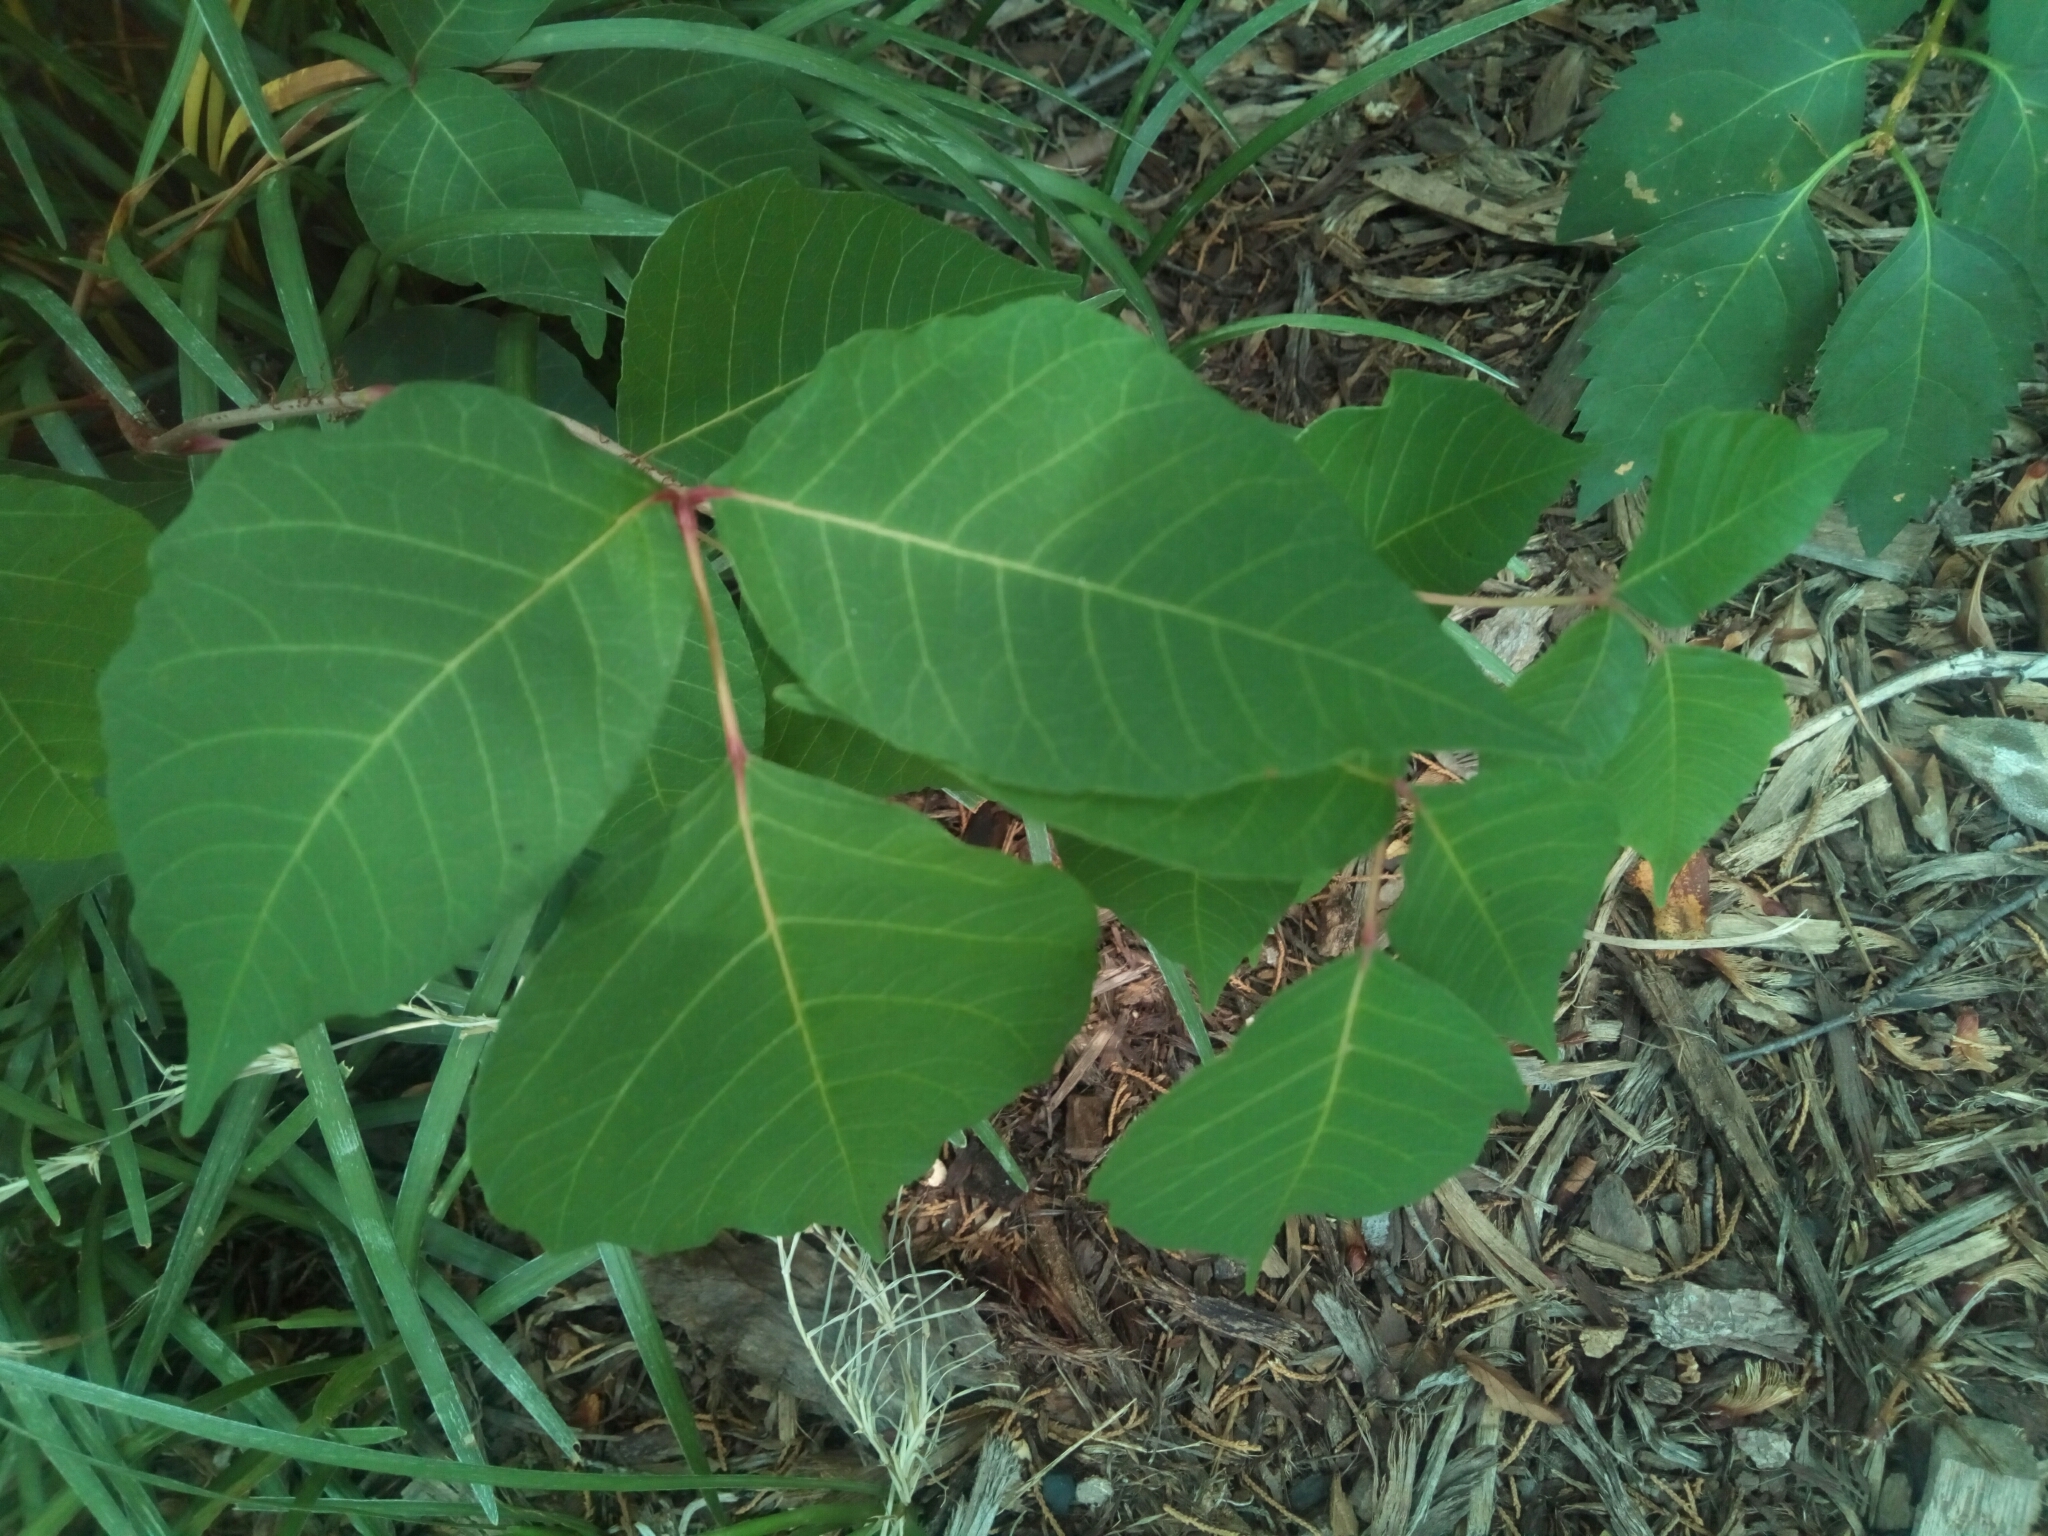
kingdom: Plantae
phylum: Tracheophyta
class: Magnoliopsida
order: Sapindales
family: Anacardiaceae
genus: Toxicodendron
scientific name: Toxicodendron radicans
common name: Poison ivy
